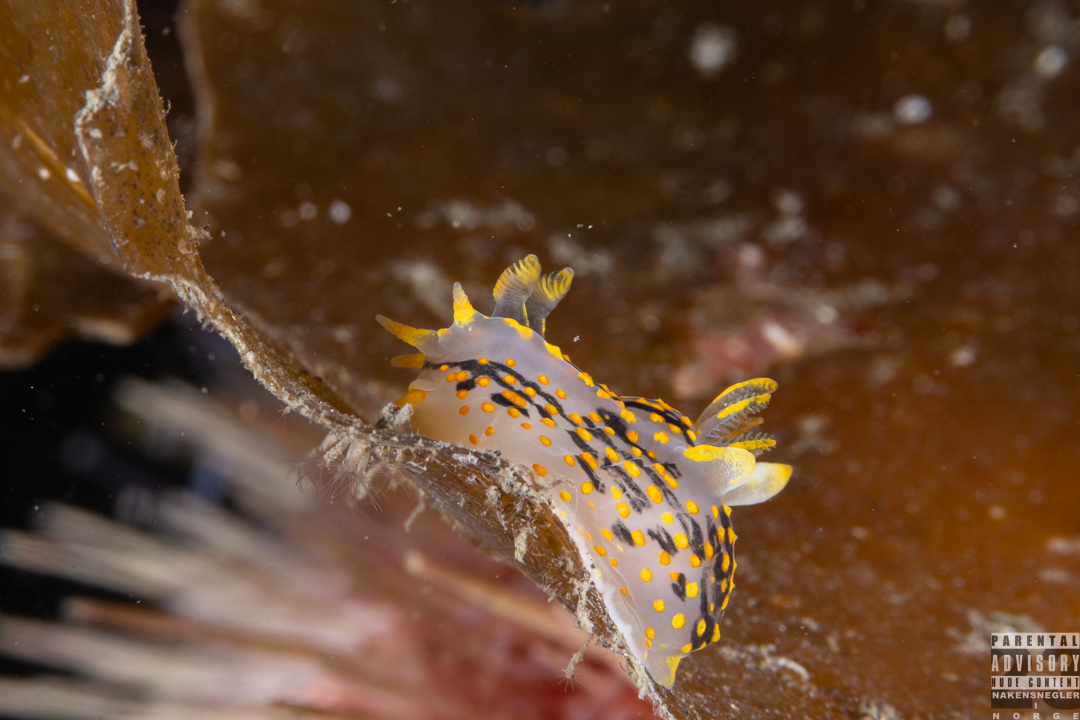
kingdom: Animalia
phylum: Mollusca
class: Gastropoda
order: Nudibranchia
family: Polyceridae
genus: Polycera
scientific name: Polycera quadrilineata
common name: Four-striped polycera
